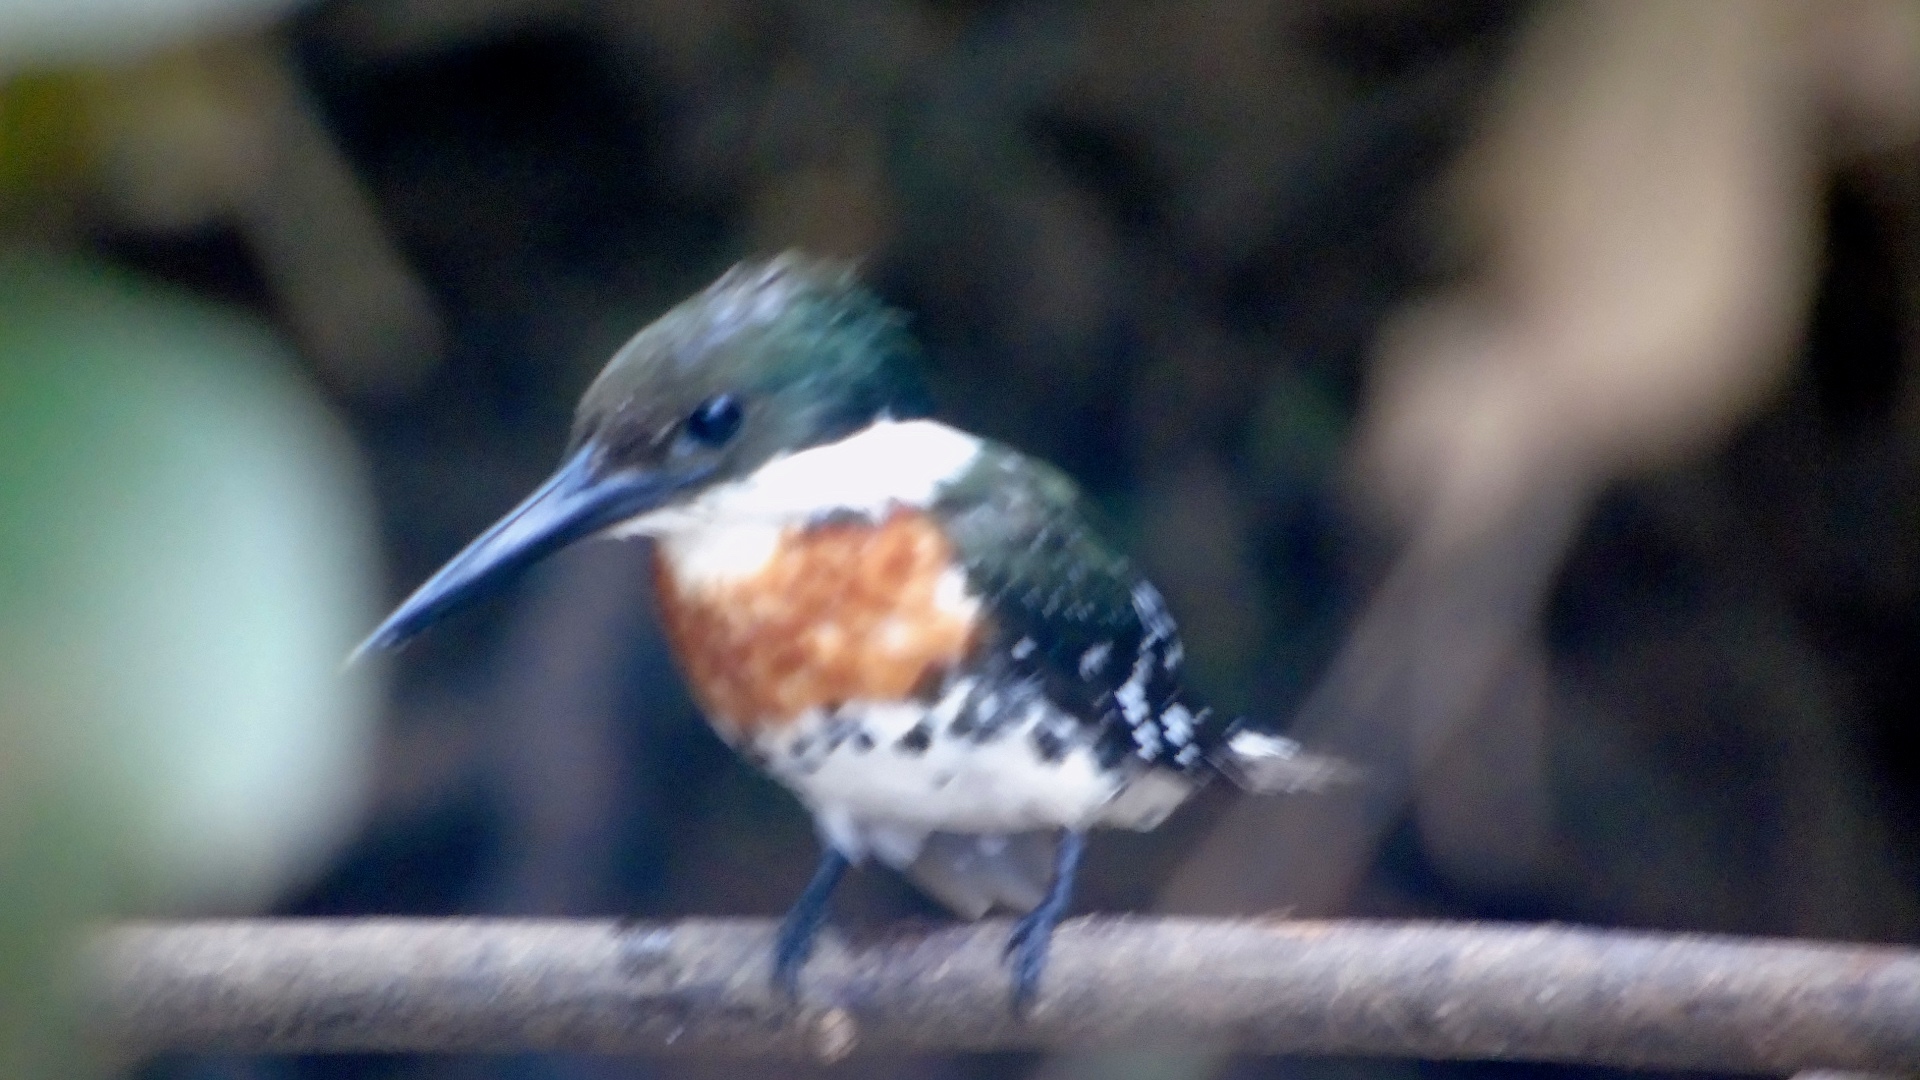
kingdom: Animalia
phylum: Chordata
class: Aves
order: Coraciiformes
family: Alcedinidae
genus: Chloroceryle
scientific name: Chloroceryle americana
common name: Green kingfisher
